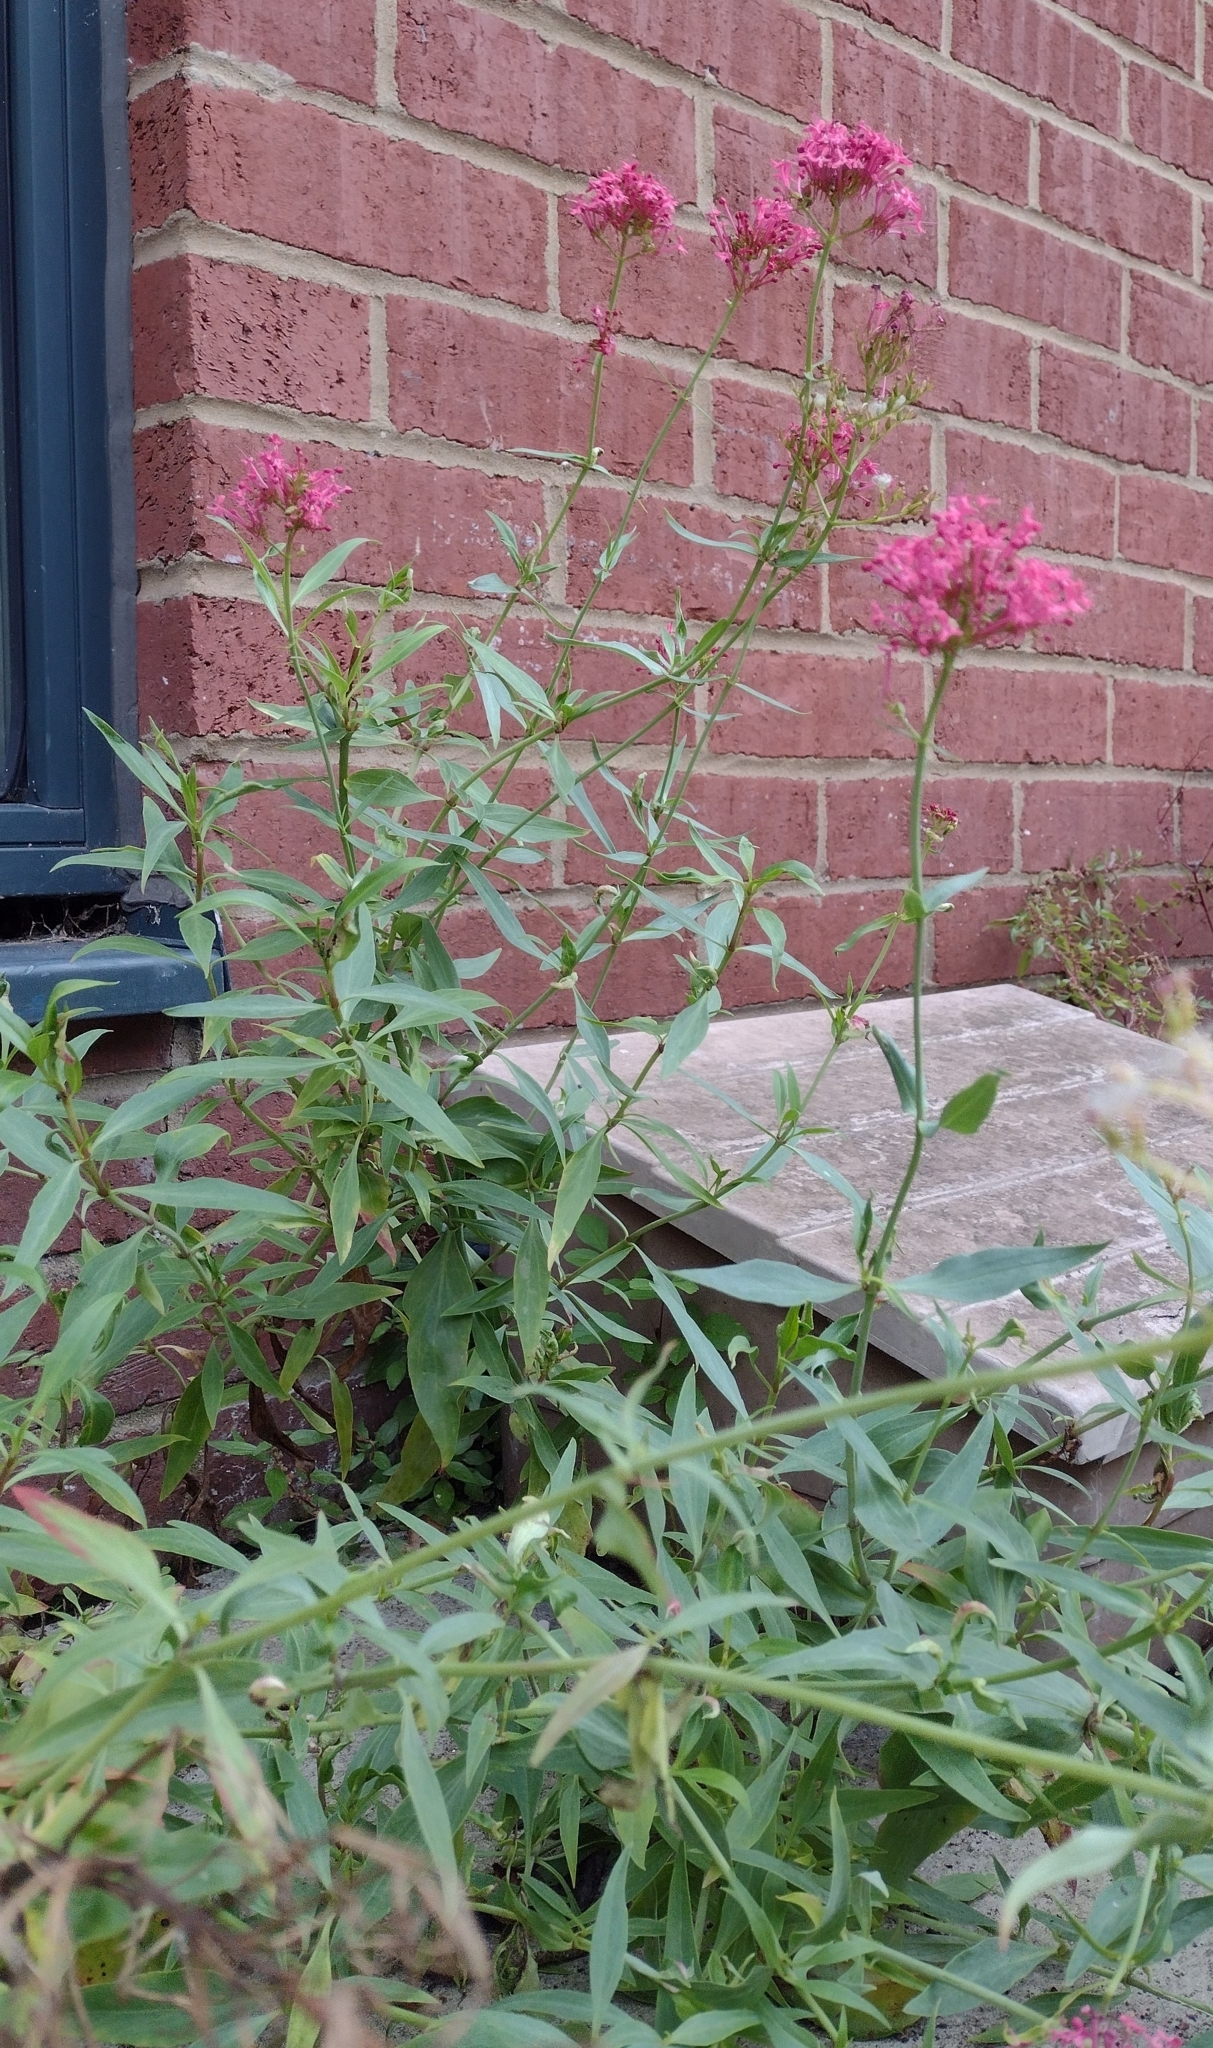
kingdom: Plantae
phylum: Tracheophyta
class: Magnoliopsida
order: Dipsacales
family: Caprifoliaceae
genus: Centranthus
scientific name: Centranthus ruber
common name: Red valerian
